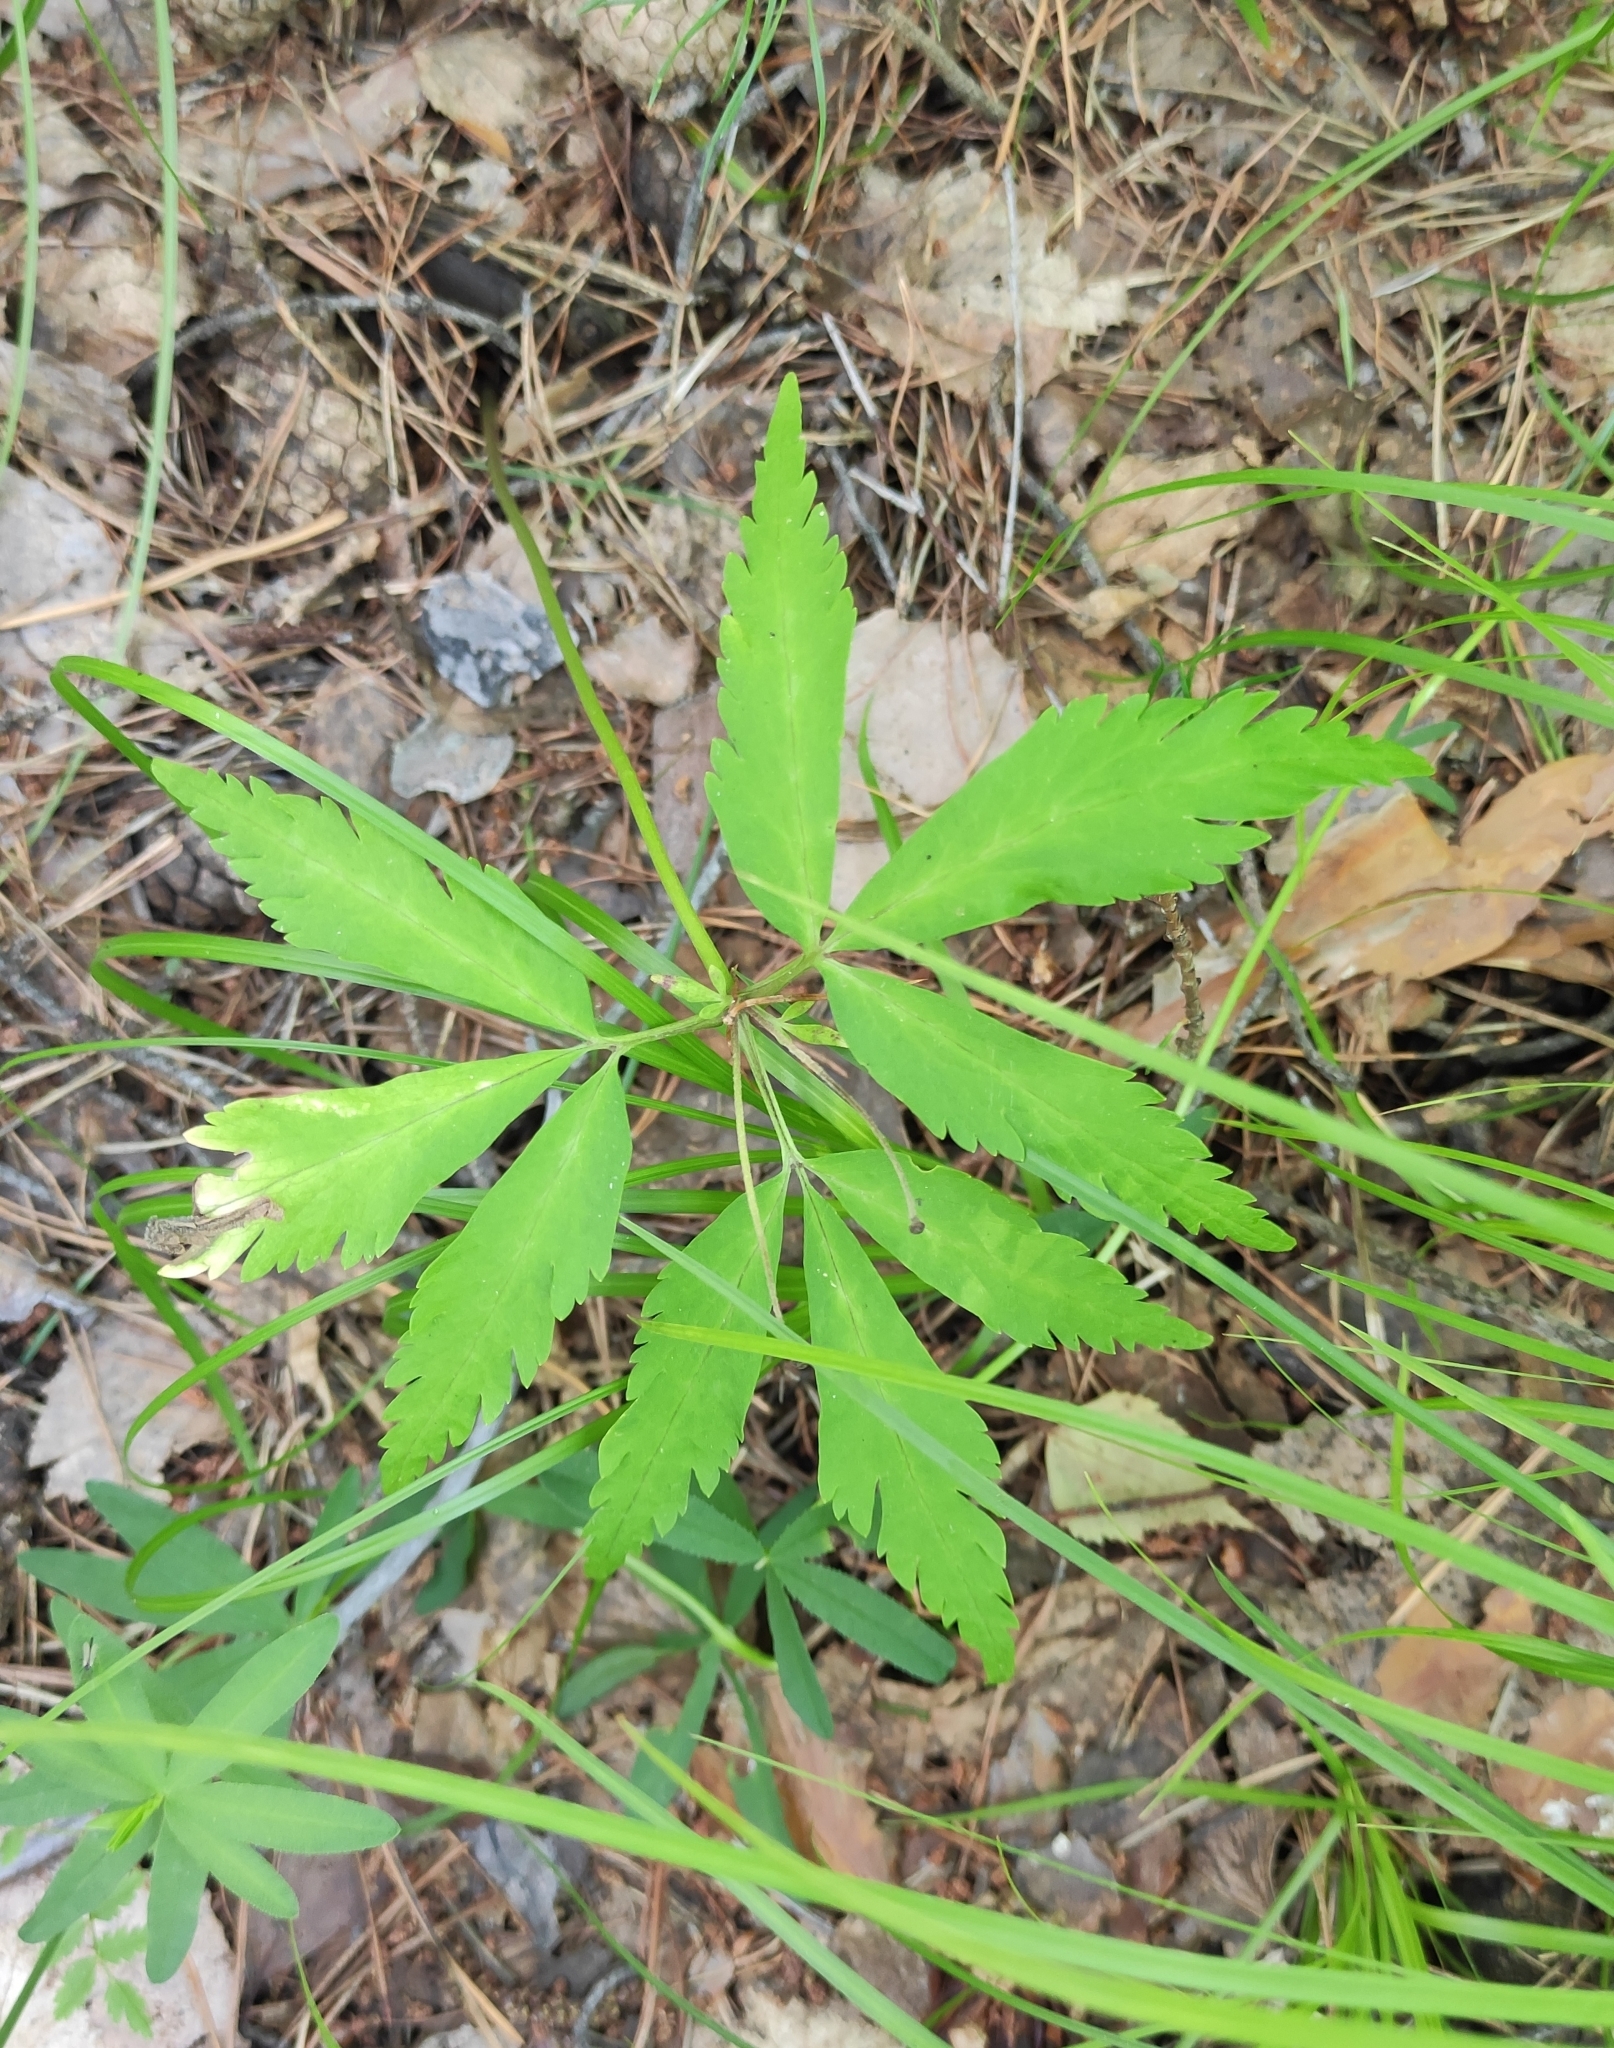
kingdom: Plantae
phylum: Tracheophyta
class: Magnoliopsida
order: Ranunculales
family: Ranunculaceae
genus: Anemone
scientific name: Anemone reflexa
